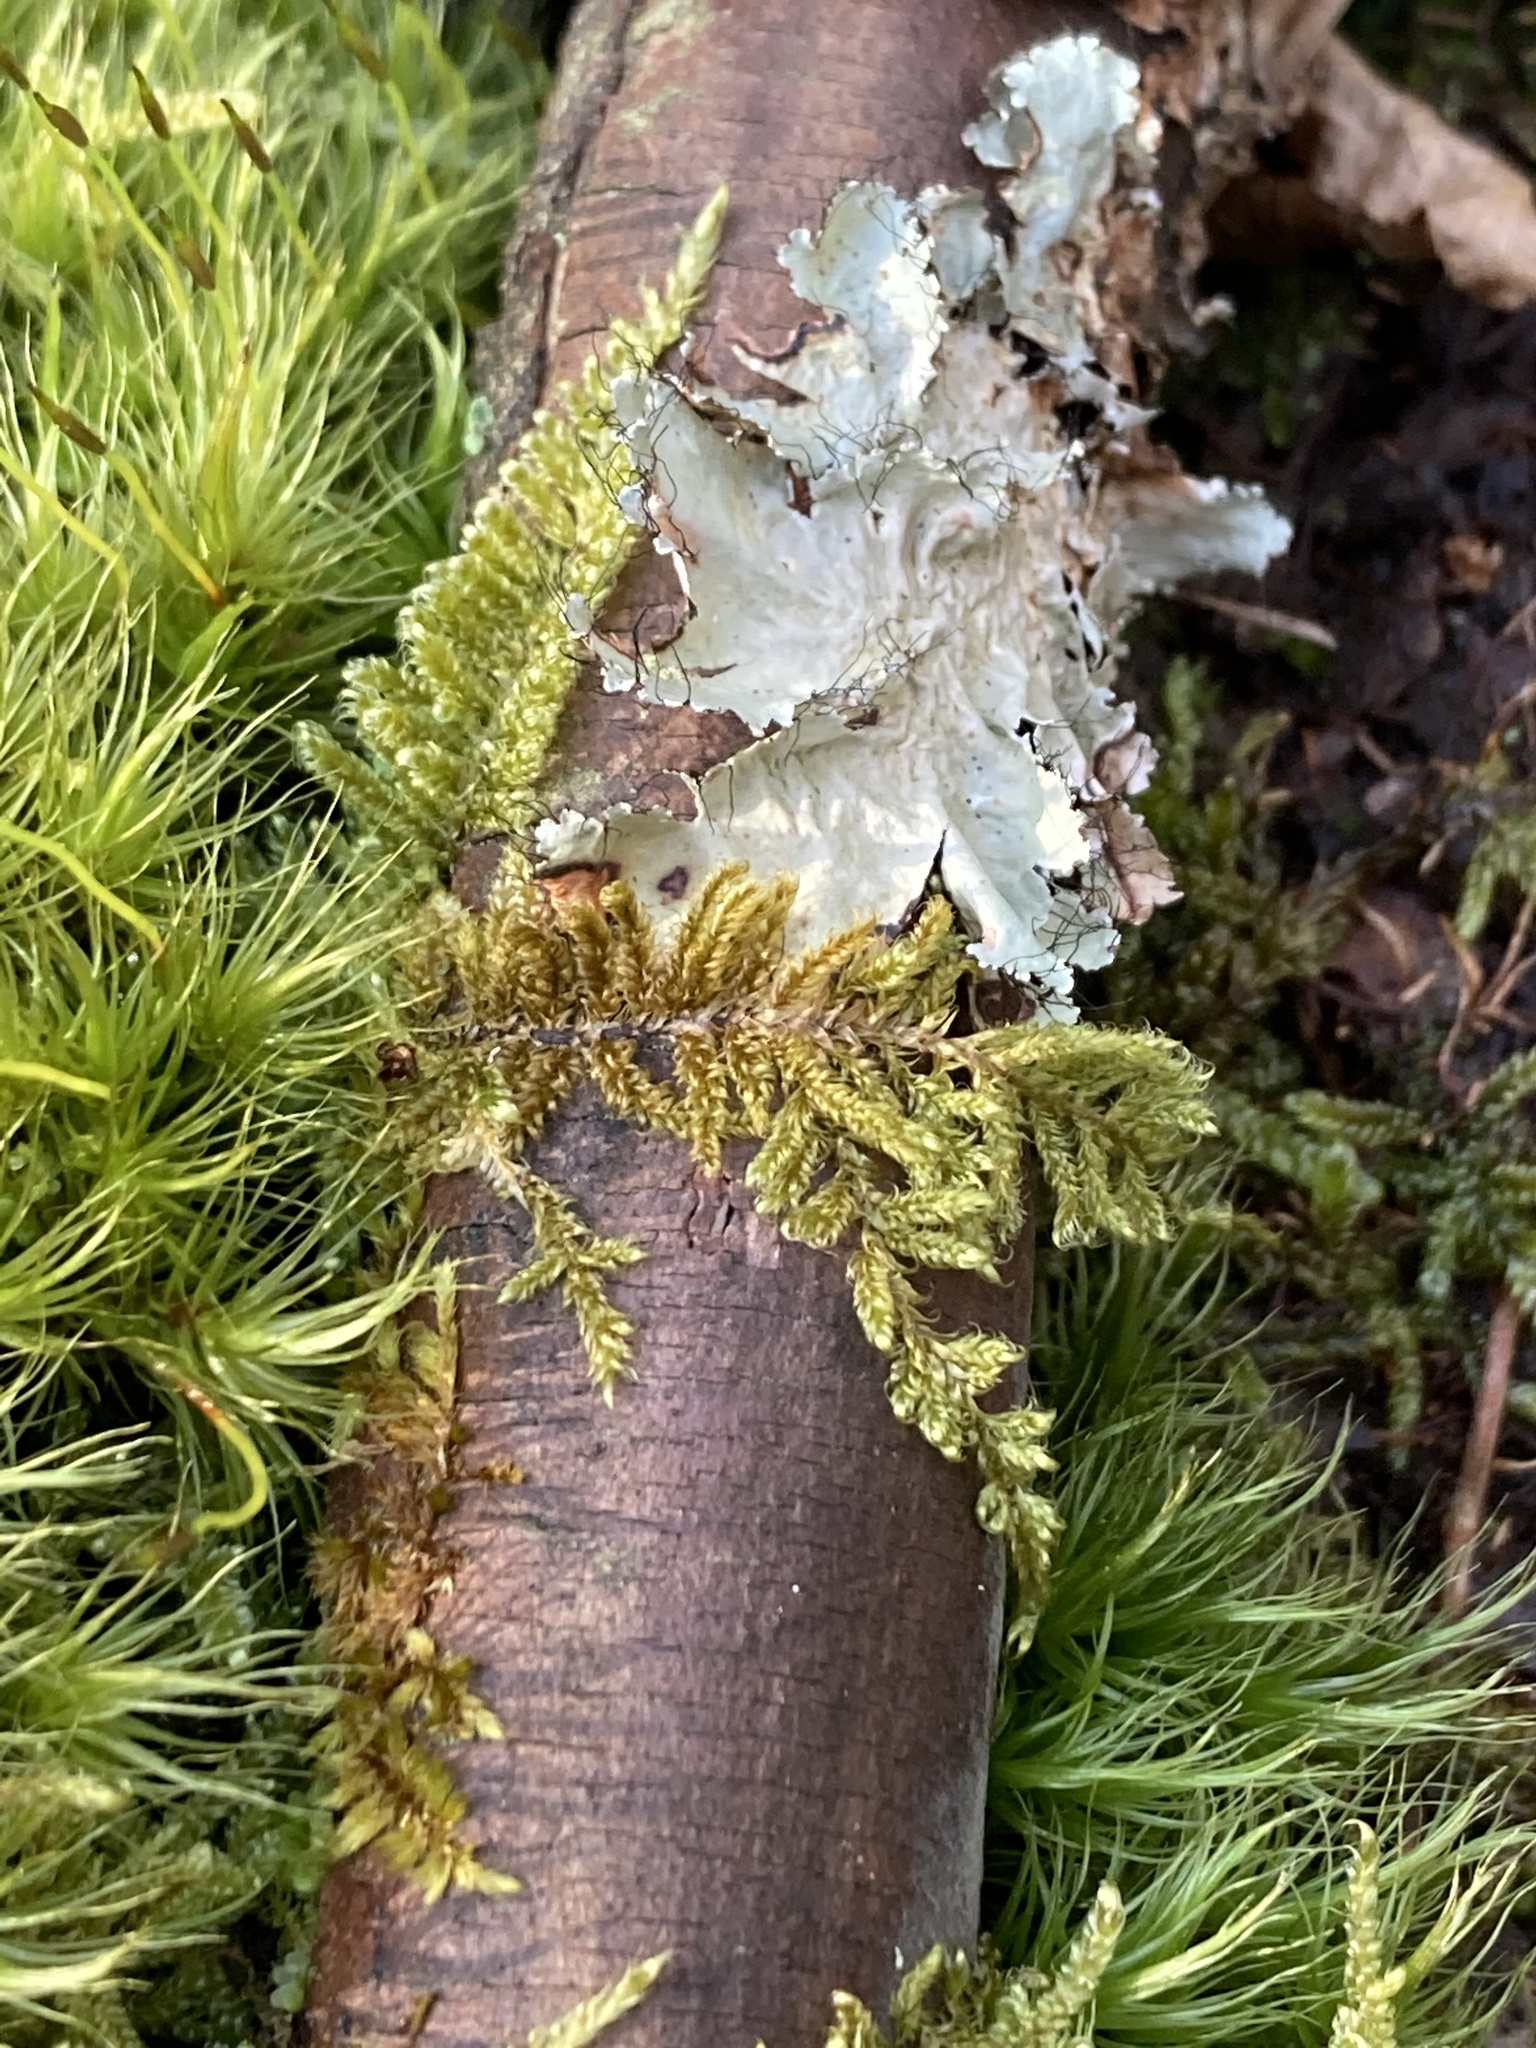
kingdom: Plantae
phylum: Bryophyta
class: Bryopsida
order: Hypnales
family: Callicladiaceae
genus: Callicladium
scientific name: Callicladium imponens
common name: Brocade moss
